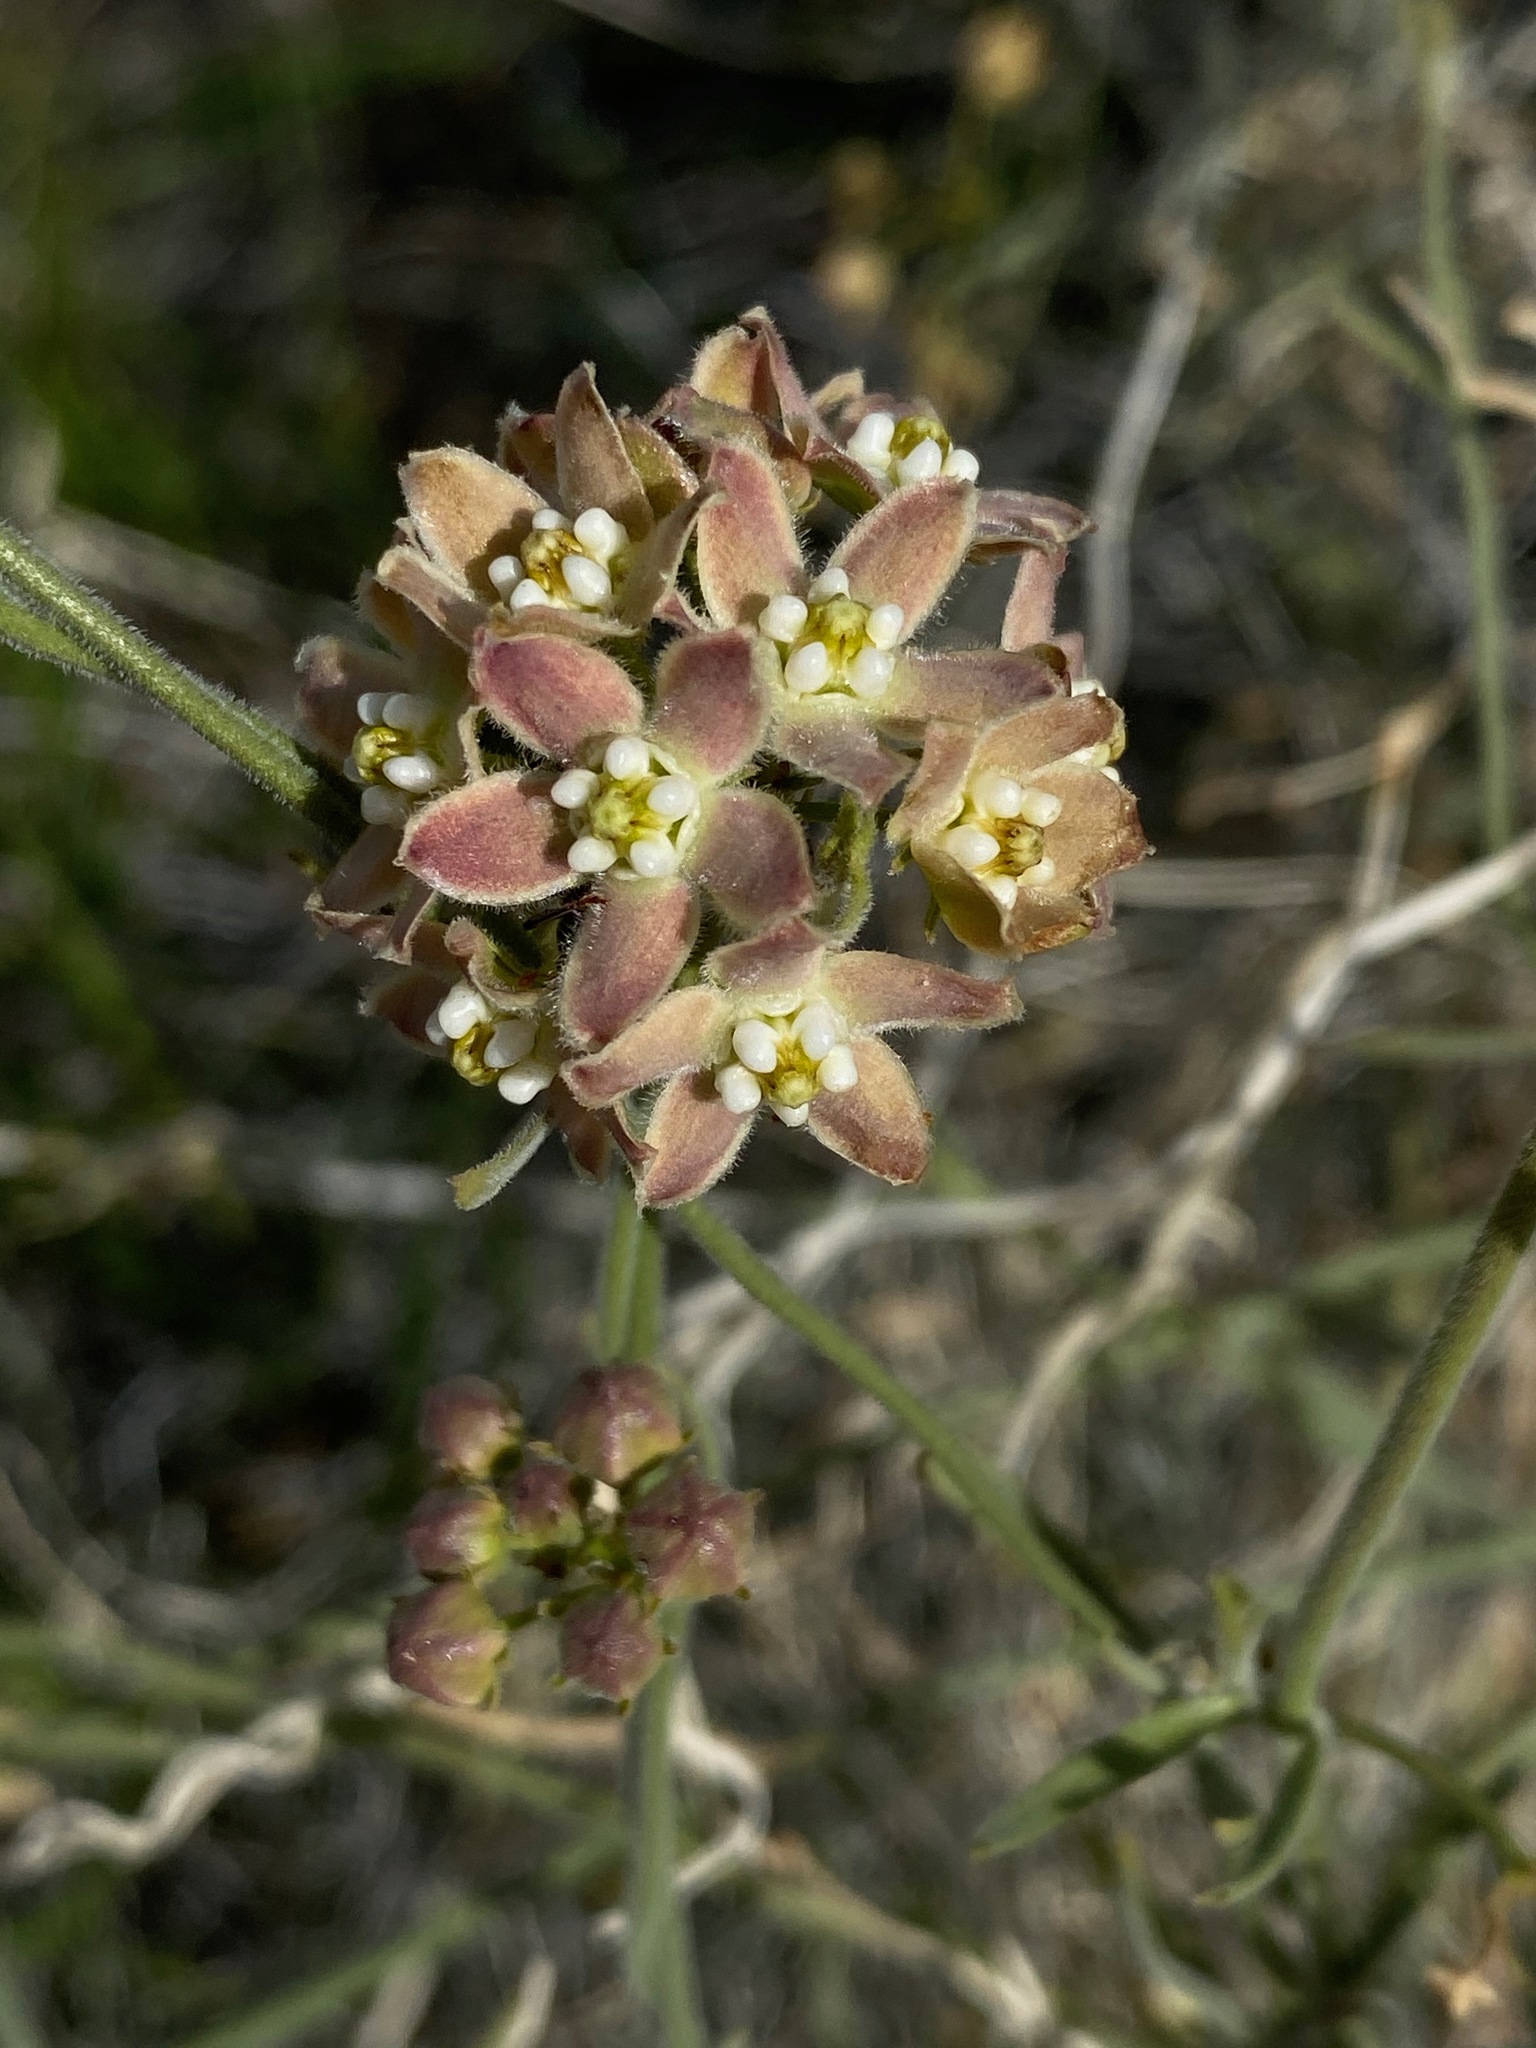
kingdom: Plantae
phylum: Tracheophyta
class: Magnoliopsida
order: Gentianales
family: Apocynaceae
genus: Funastrum
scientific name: Funastrum hirtellum
